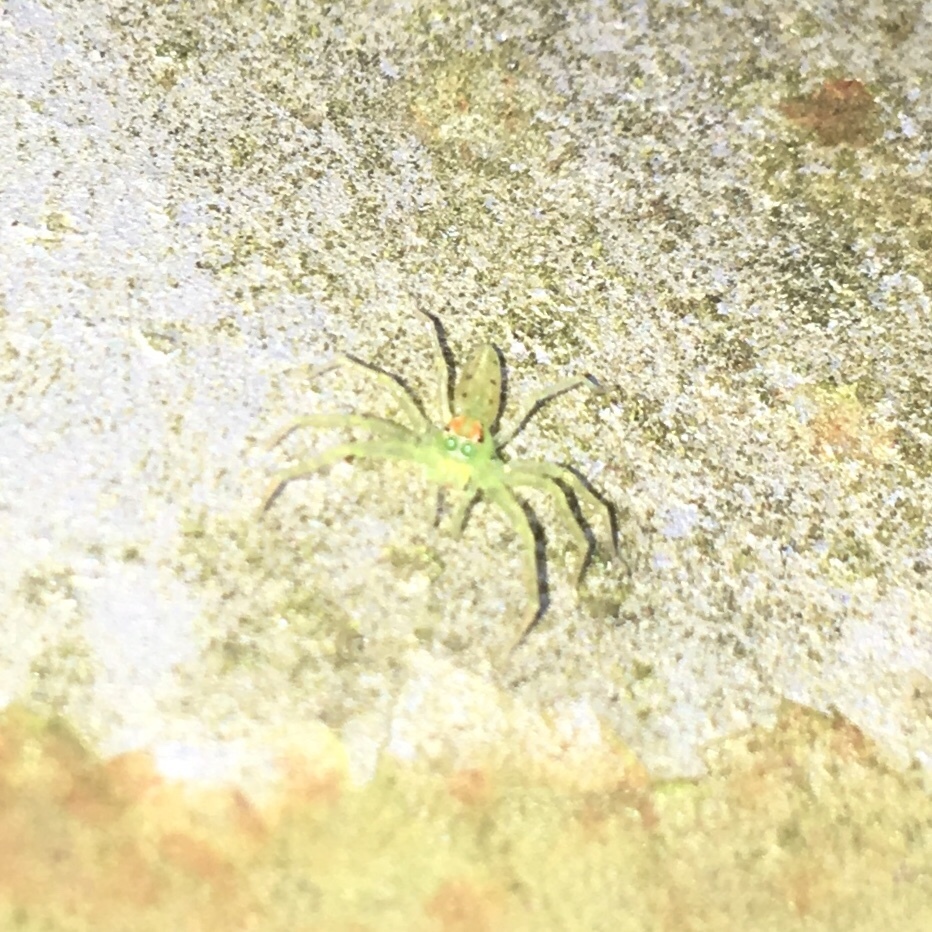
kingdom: Animalia
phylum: Arthropoda
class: Arachnida
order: Araneae
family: Salticidae
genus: Lyssomanes
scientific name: Lyssomanes viridis
